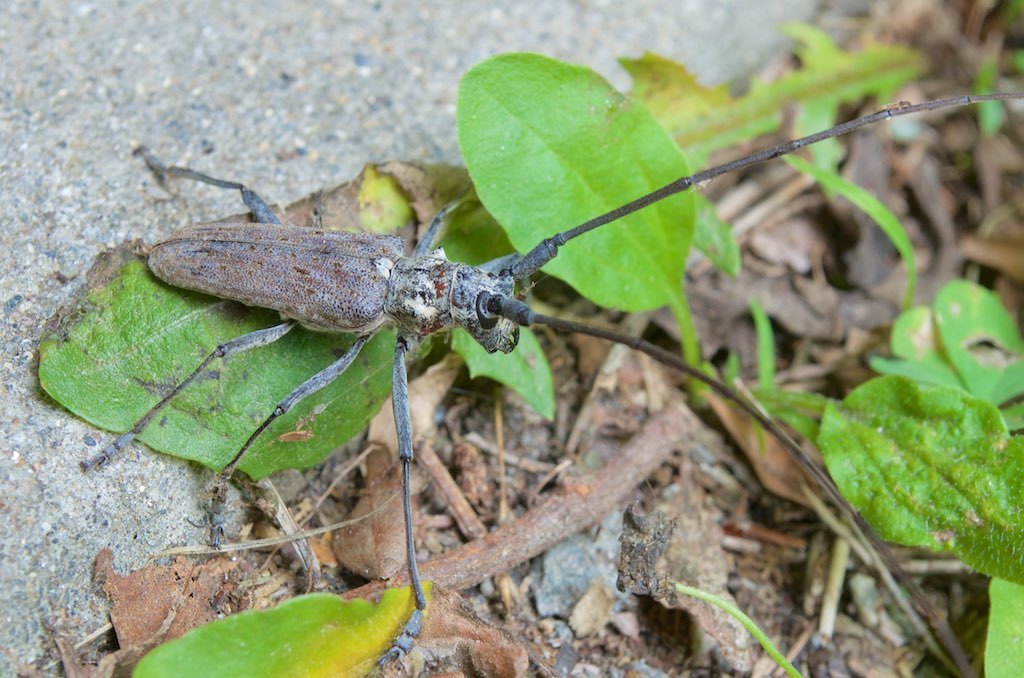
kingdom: Animalia
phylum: Arthropoda
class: Insecta
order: Coleoptera
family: Cerambycidae
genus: Monochamus
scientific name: Monochamus notatus
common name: Northeastern pine sawyer beetle
